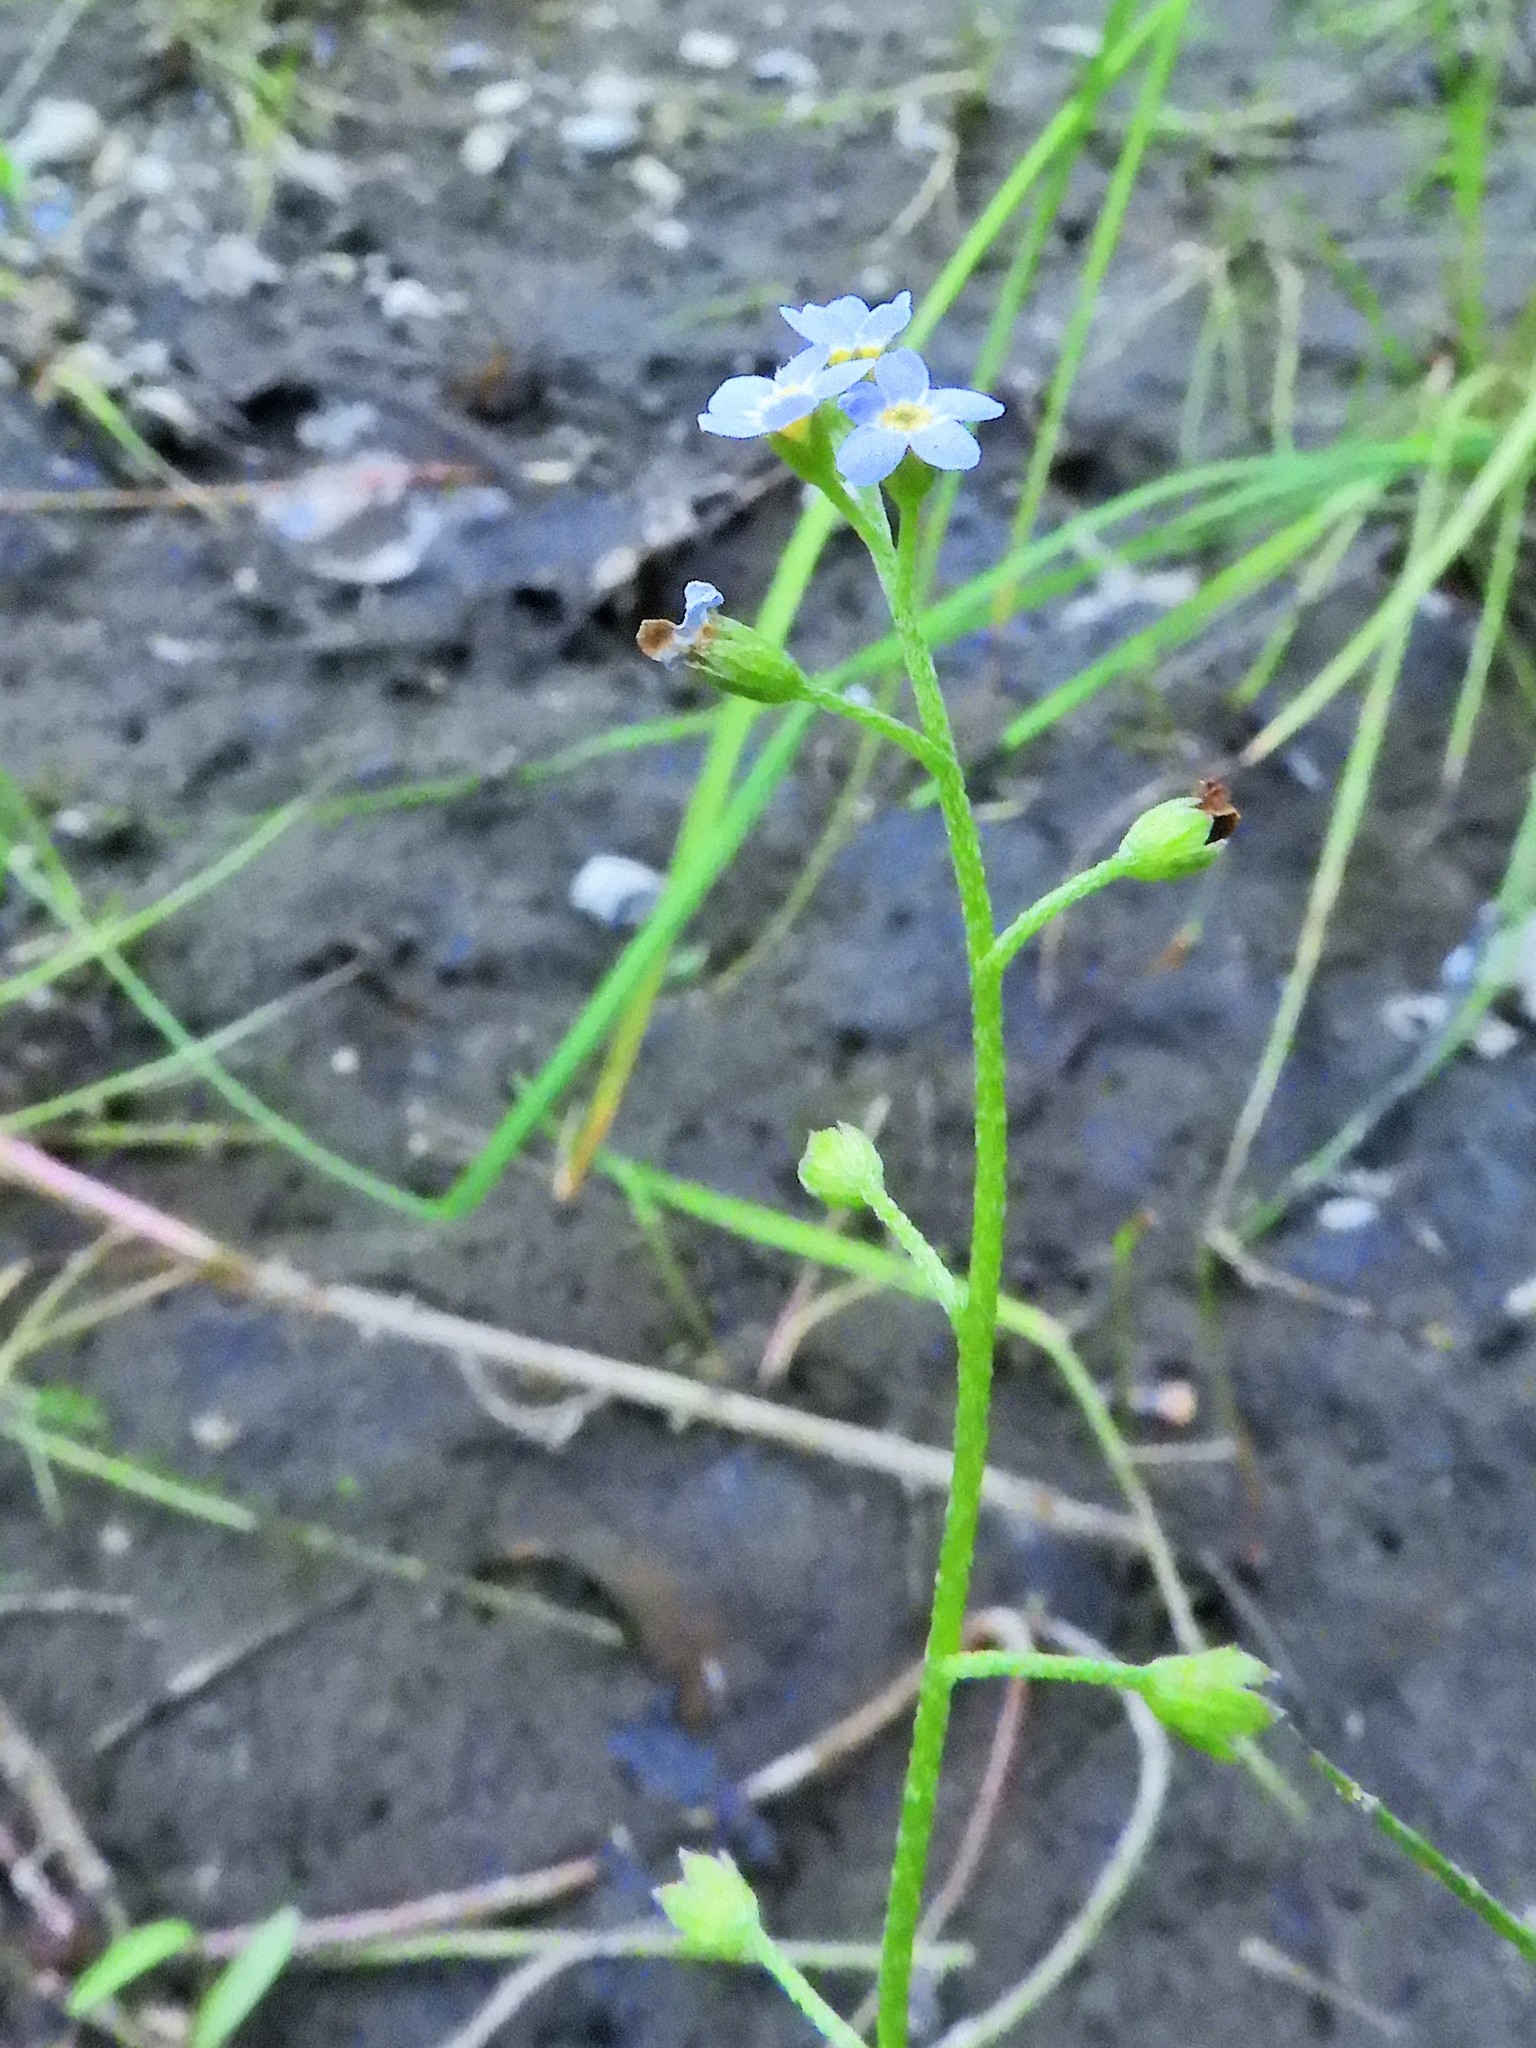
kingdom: Plantae
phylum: Tracheophyta
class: Magnoliopsida
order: Boraginales
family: Boraginaceae
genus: Myosotis
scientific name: Myosotis scorpioides
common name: Water forget-me-not
